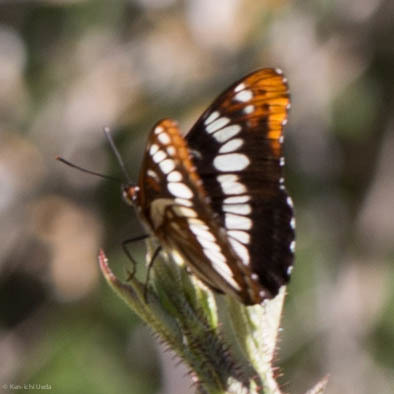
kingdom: Animalia
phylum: Arthropoda
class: Insecta
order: Lepidoptera
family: Nymphalidae
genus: Limenitis
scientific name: Limenitis lorquini
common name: Lorquin's admiral
